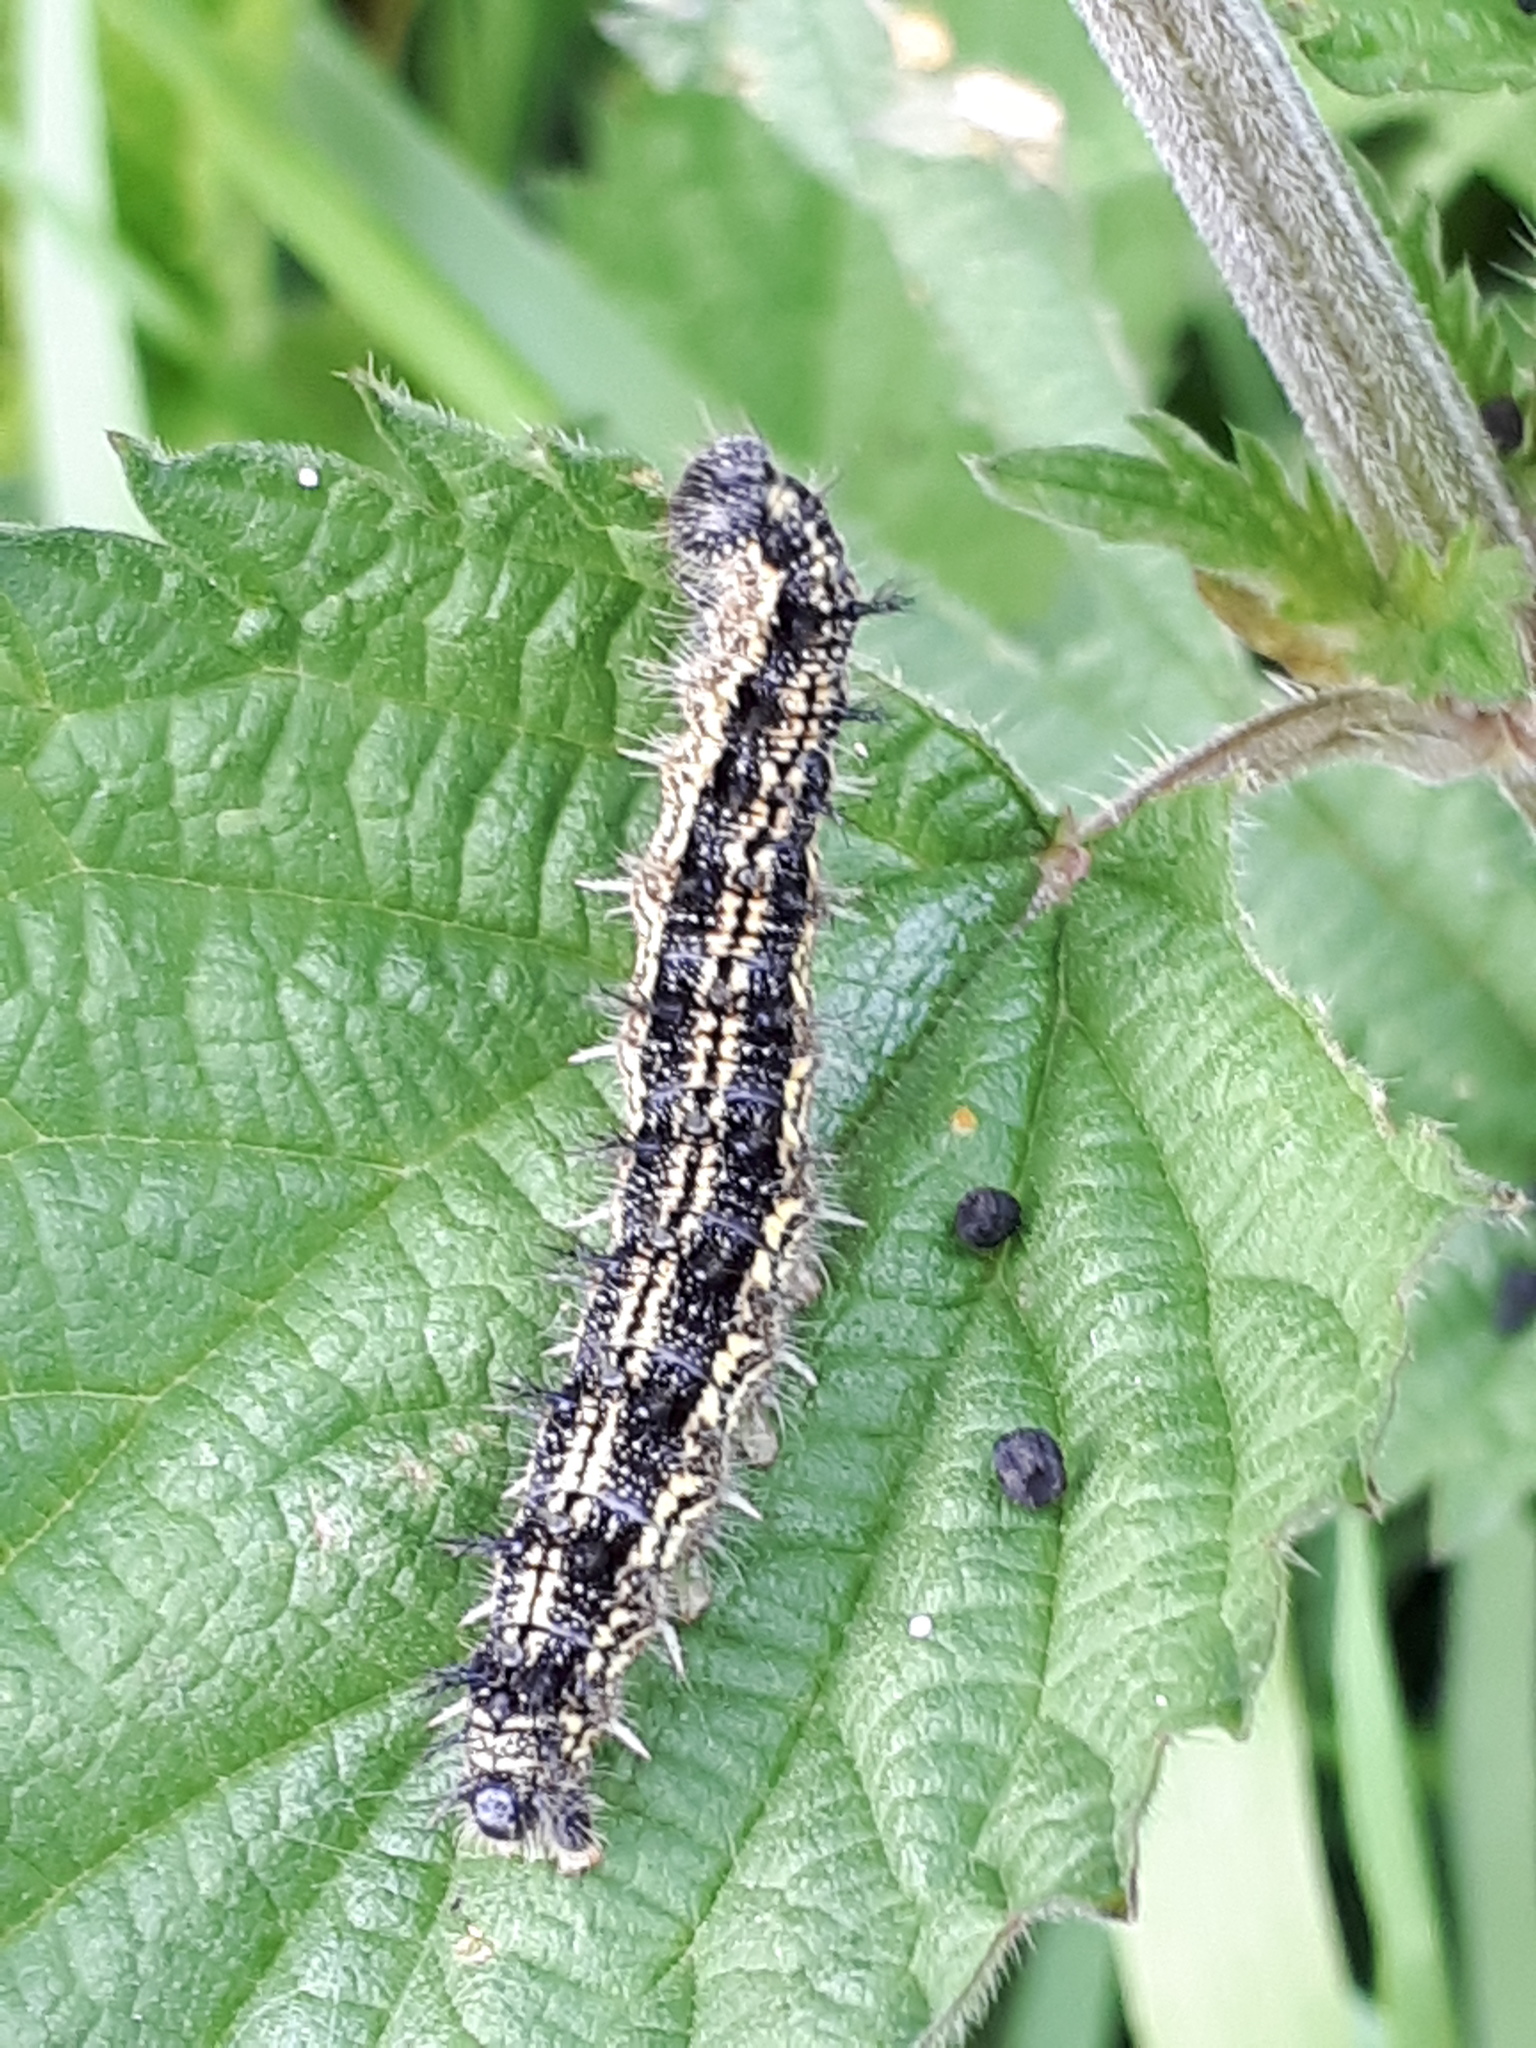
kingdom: Animalia
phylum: Arthropoda
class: Insecta
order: Lepidoptera
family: Nymphalidae
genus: Aglais
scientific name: Aglais urticae
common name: Small tortoiseshell
